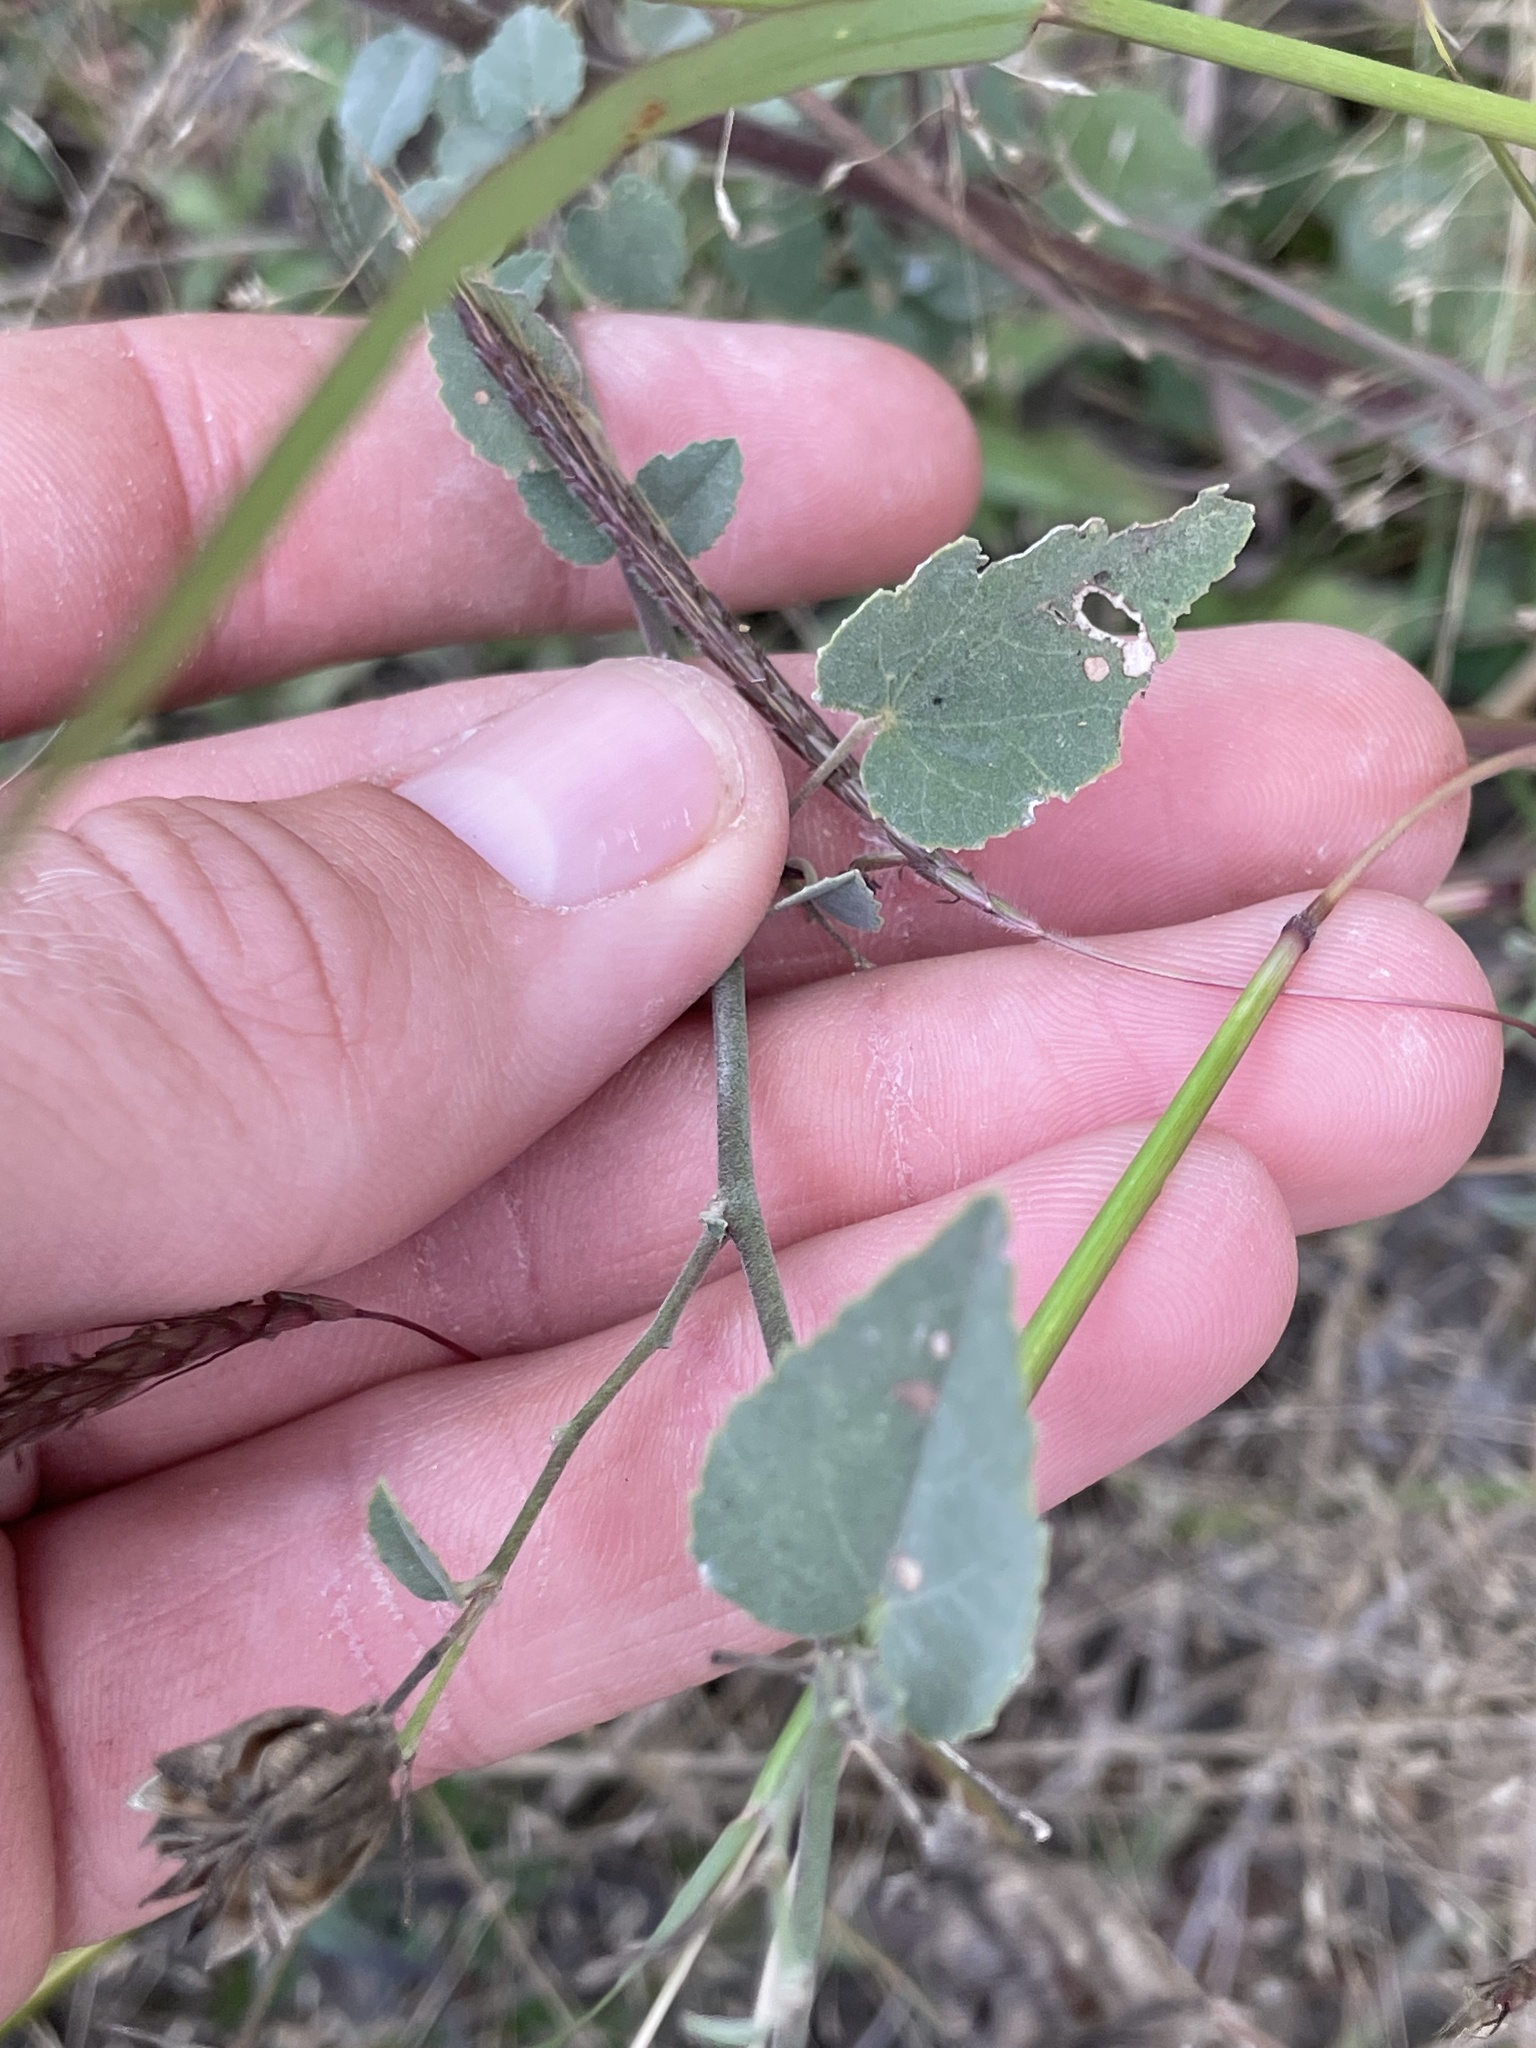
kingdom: Plantae
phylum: Tracheophyta
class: Magnoliopsida
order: Malvales
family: Malvaceae
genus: Abutilon
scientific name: Abutilon fruticosum
